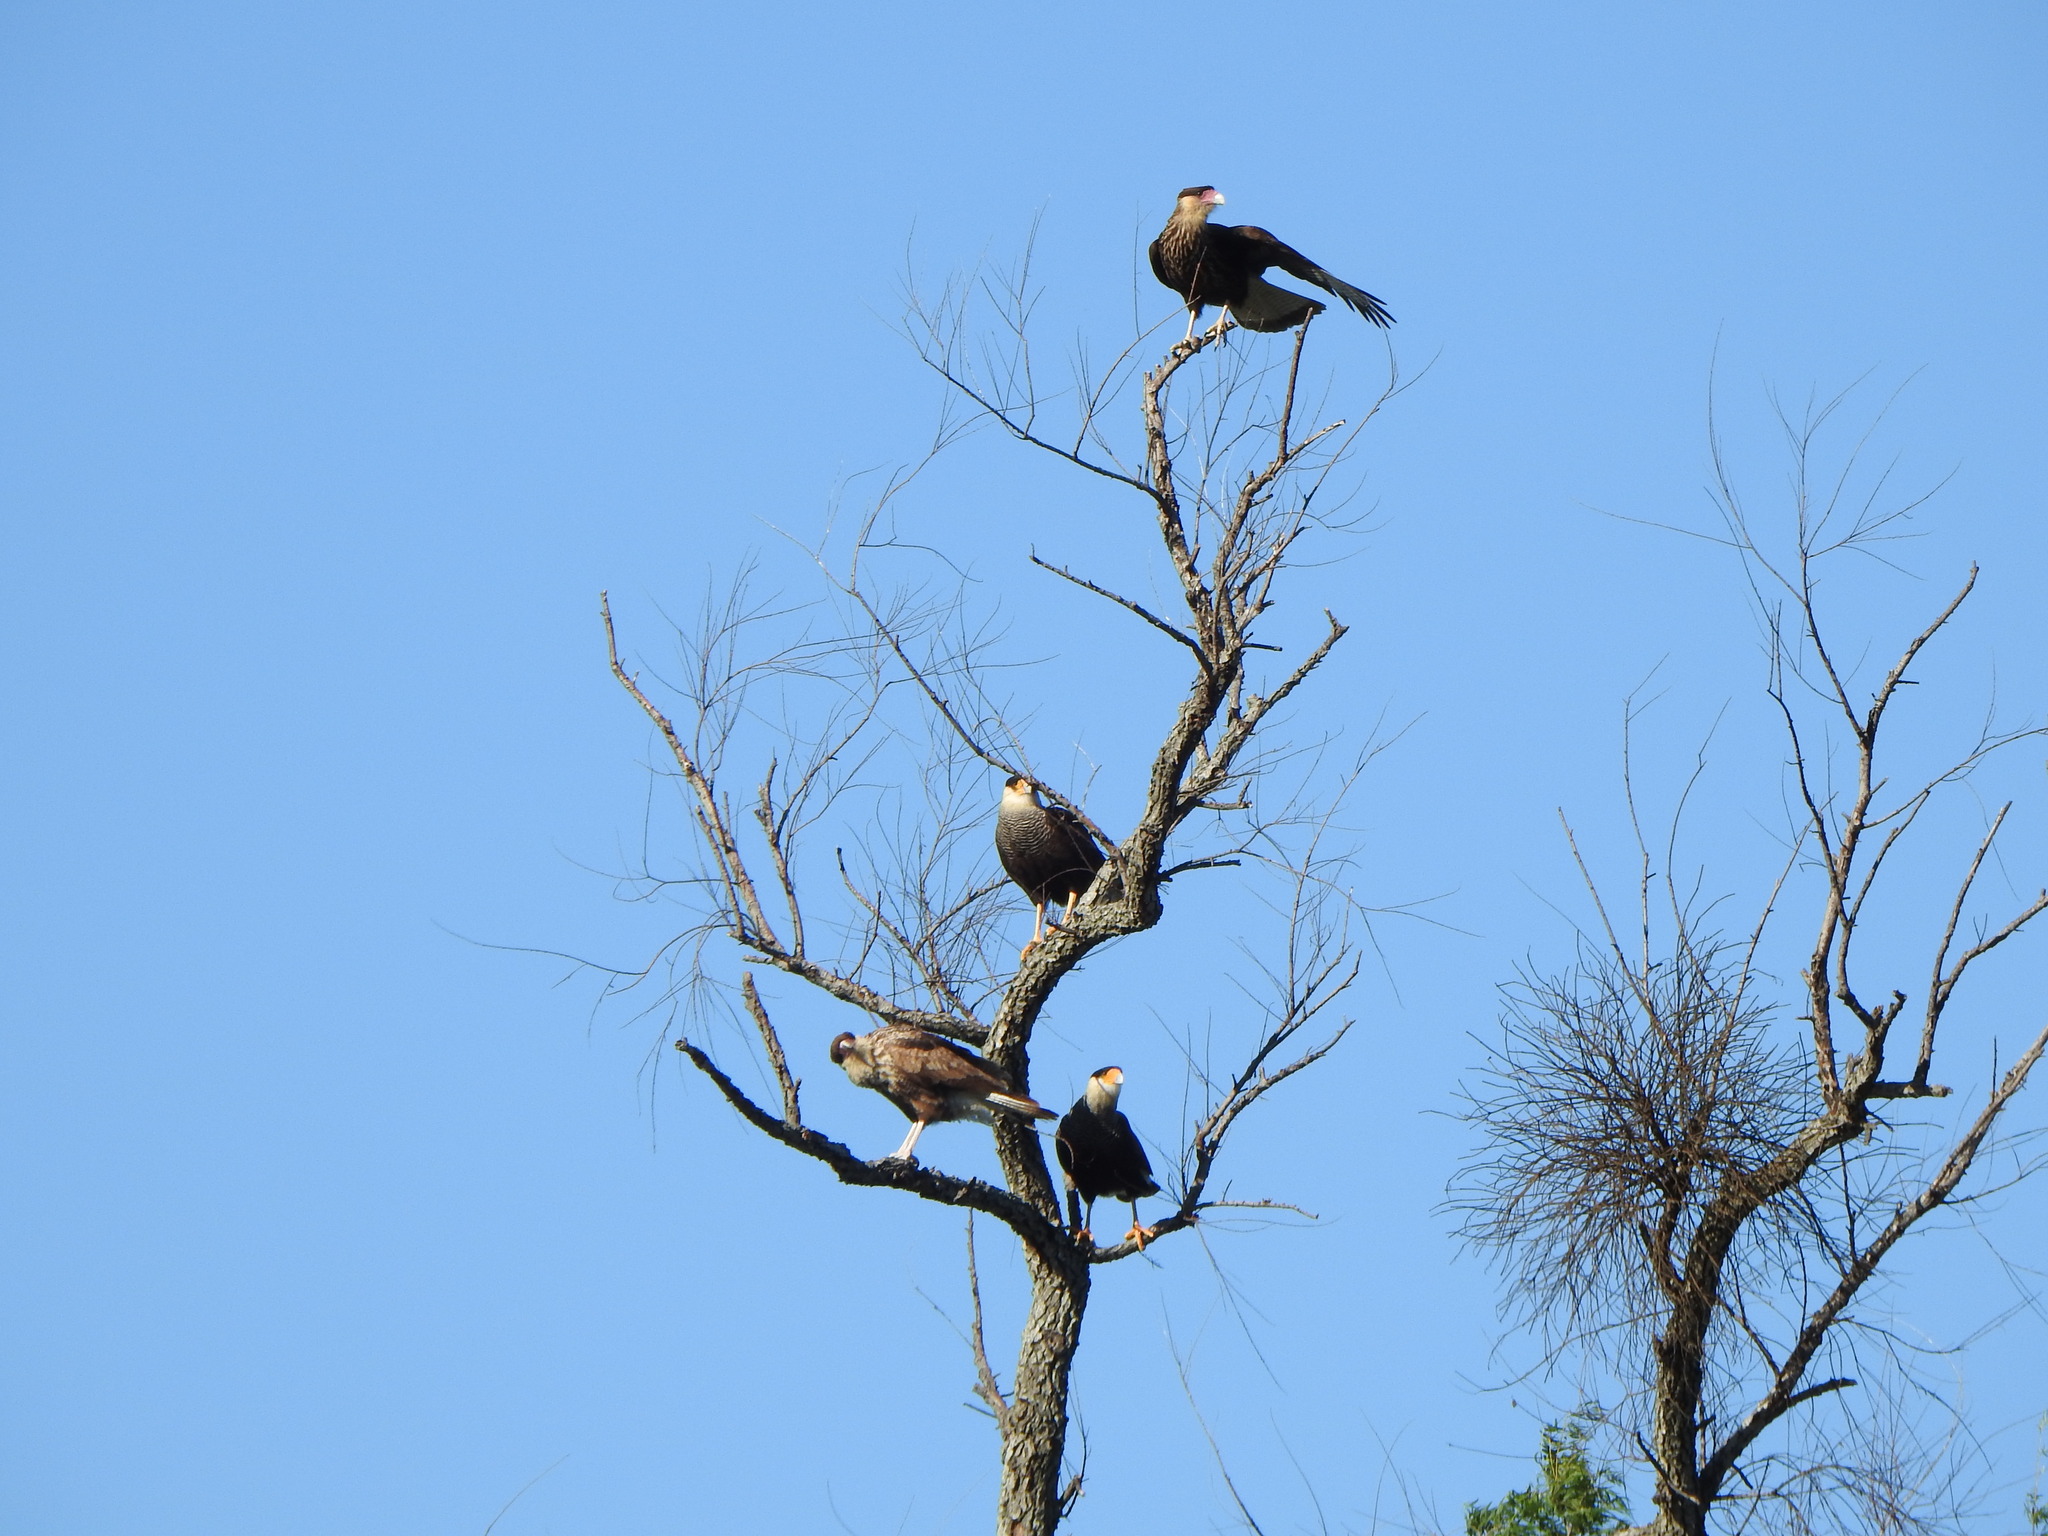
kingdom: Animalia
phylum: Chordata
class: Aves
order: Falconiformes
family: Falconidae
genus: Caracara
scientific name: Caracara plancus
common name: Southern caracara
